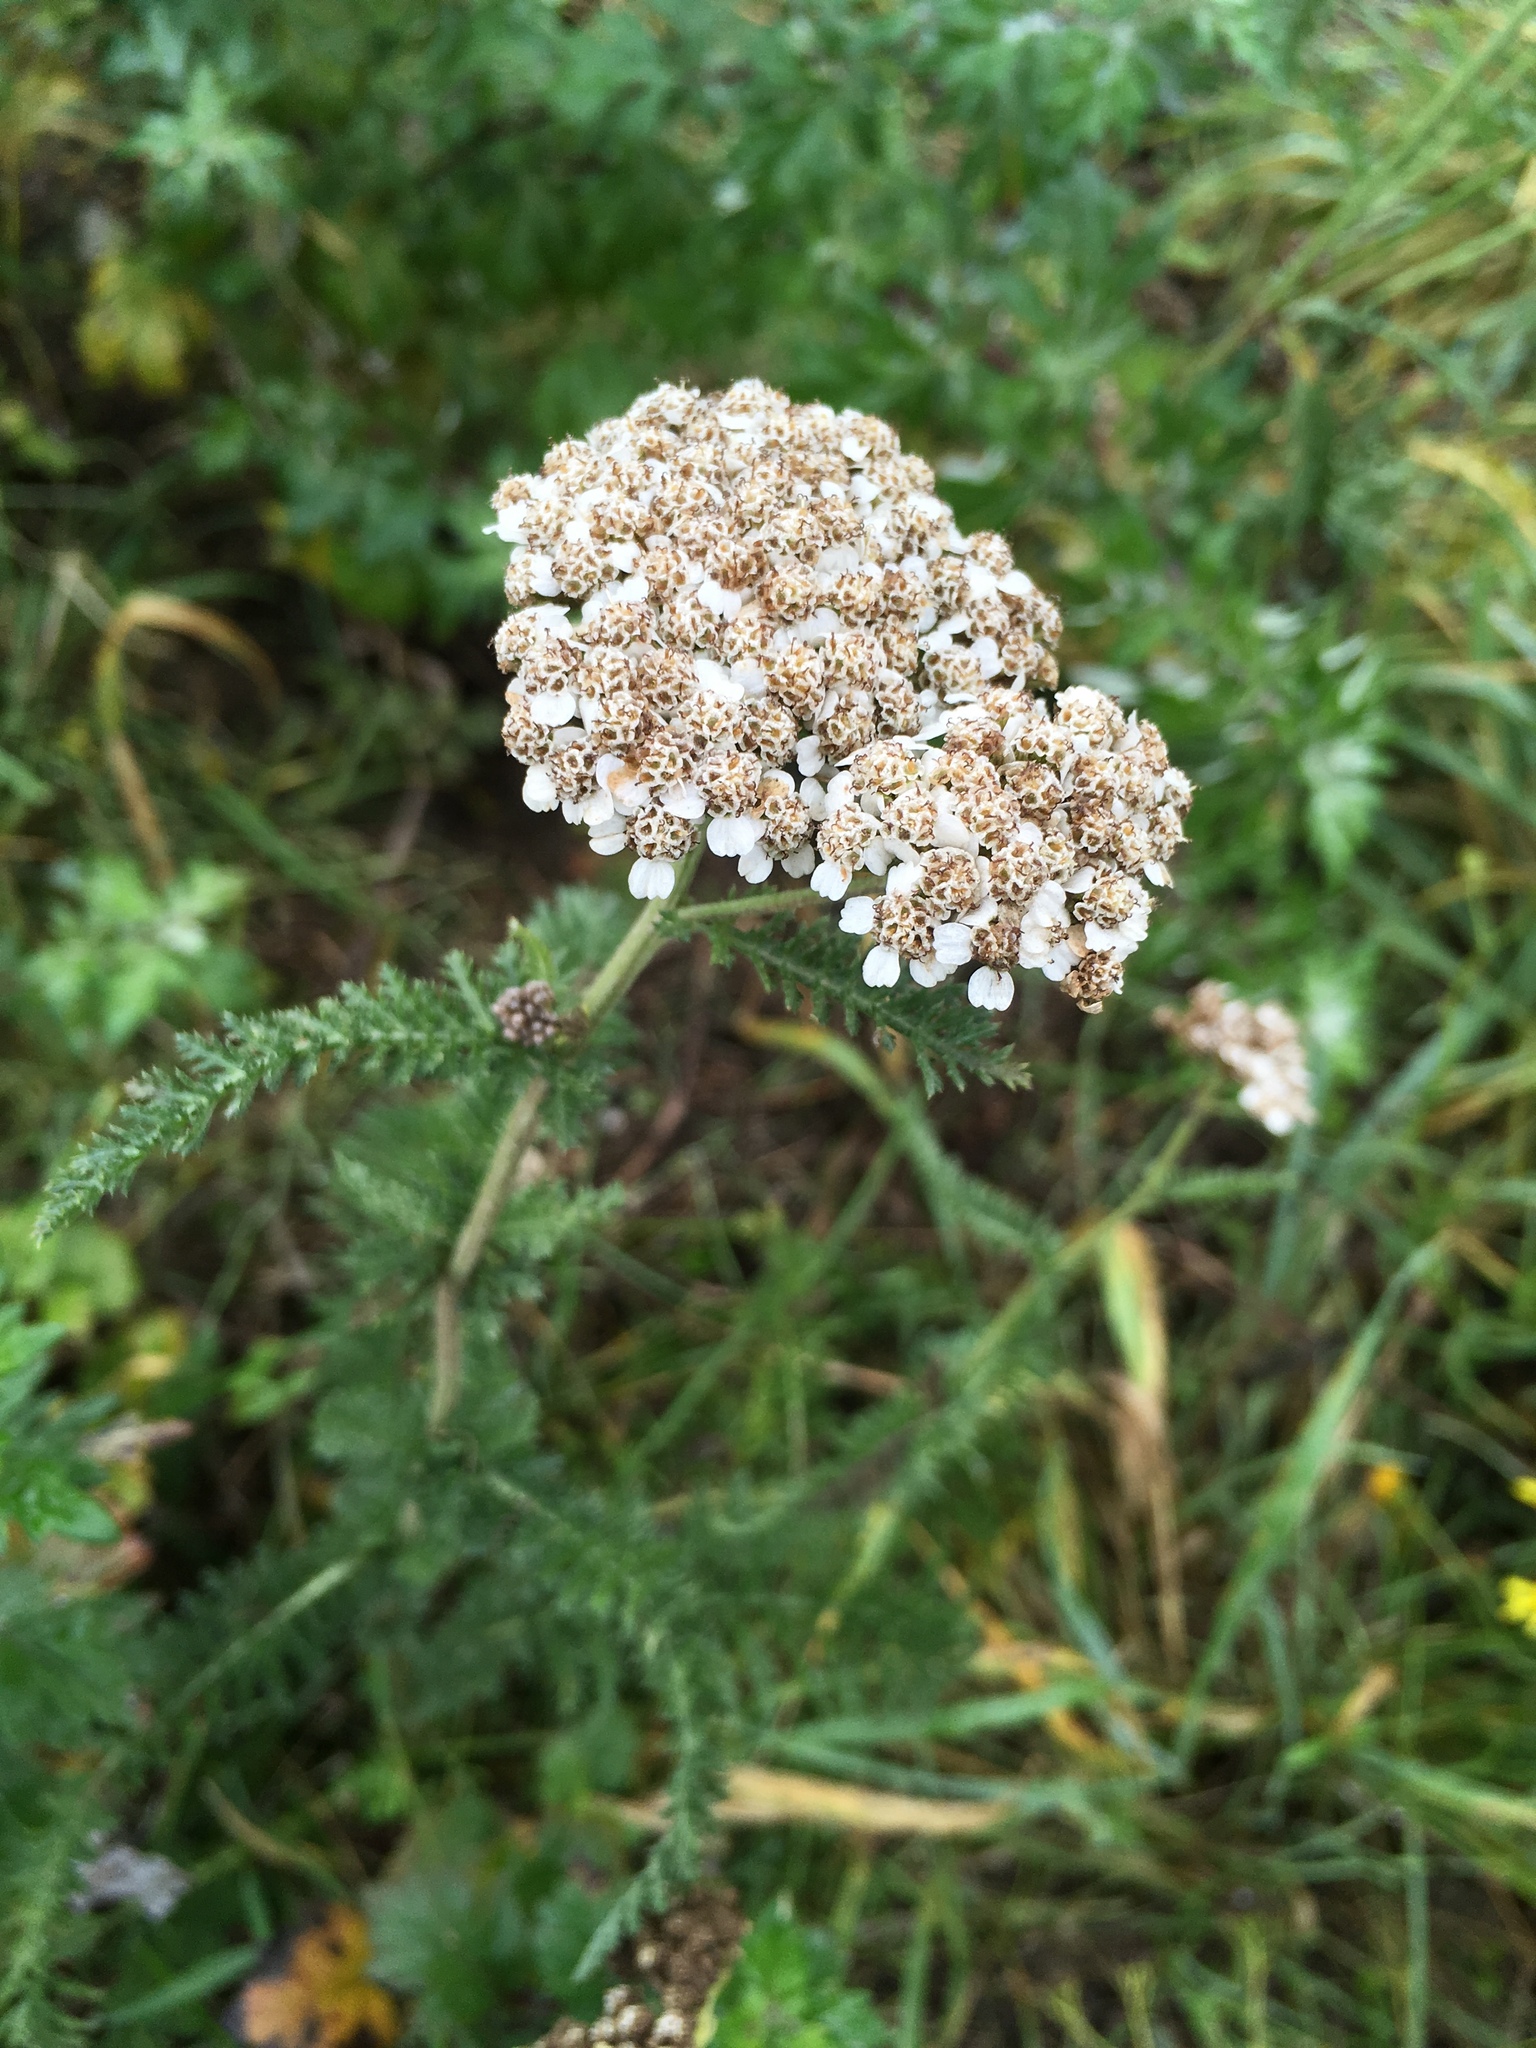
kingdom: Plantae
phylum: Tracheophyta
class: Magnoliopsida
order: Asterales
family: Asteraceae
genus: Achillea
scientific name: Achillea millefolium
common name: Yarrow
